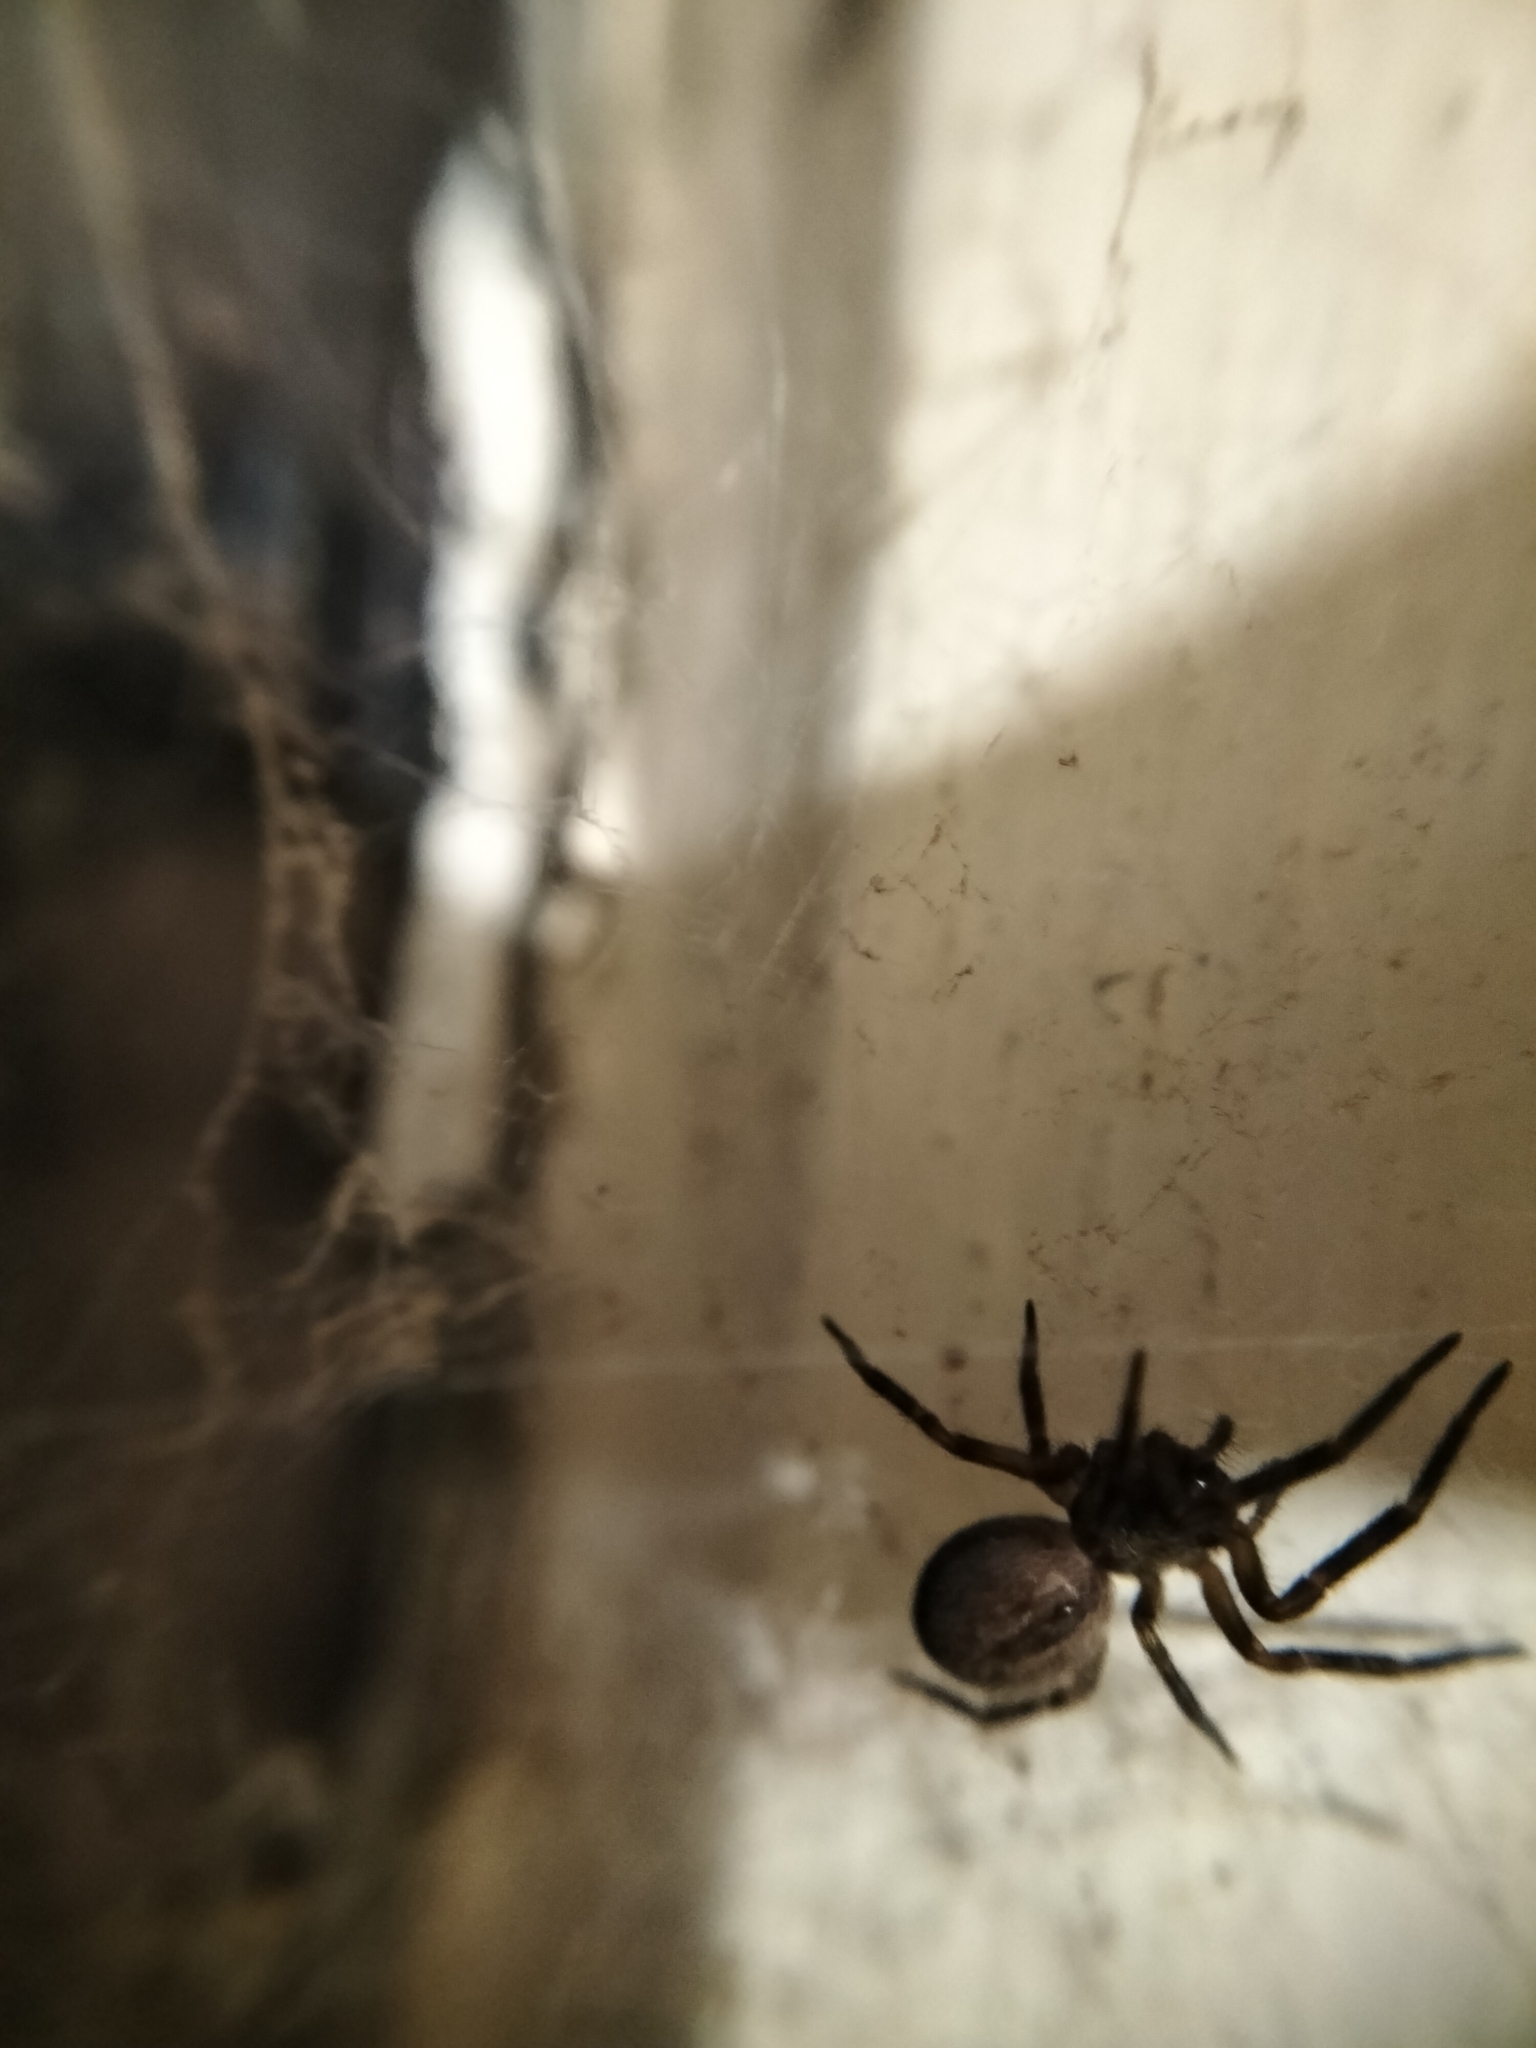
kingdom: Animalia
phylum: Arthropoda
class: Arachnida
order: Araneae
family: Desidae
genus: Badumna
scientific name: Badumna
